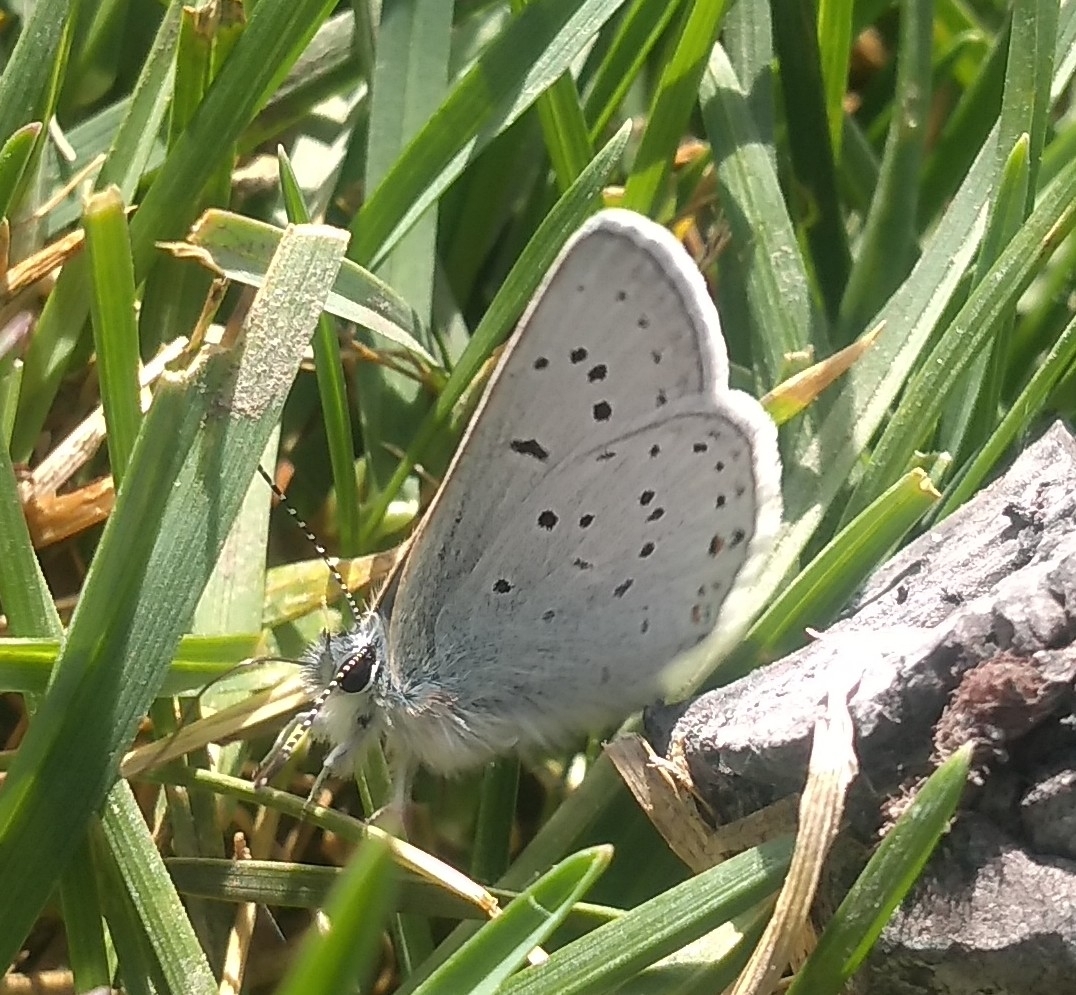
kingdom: Animalia
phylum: Arthropoda
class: Insecta
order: Lepidoptera
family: Lycaenidae
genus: Icaricia
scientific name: Icaricia saepiolus
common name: Greenish blue
